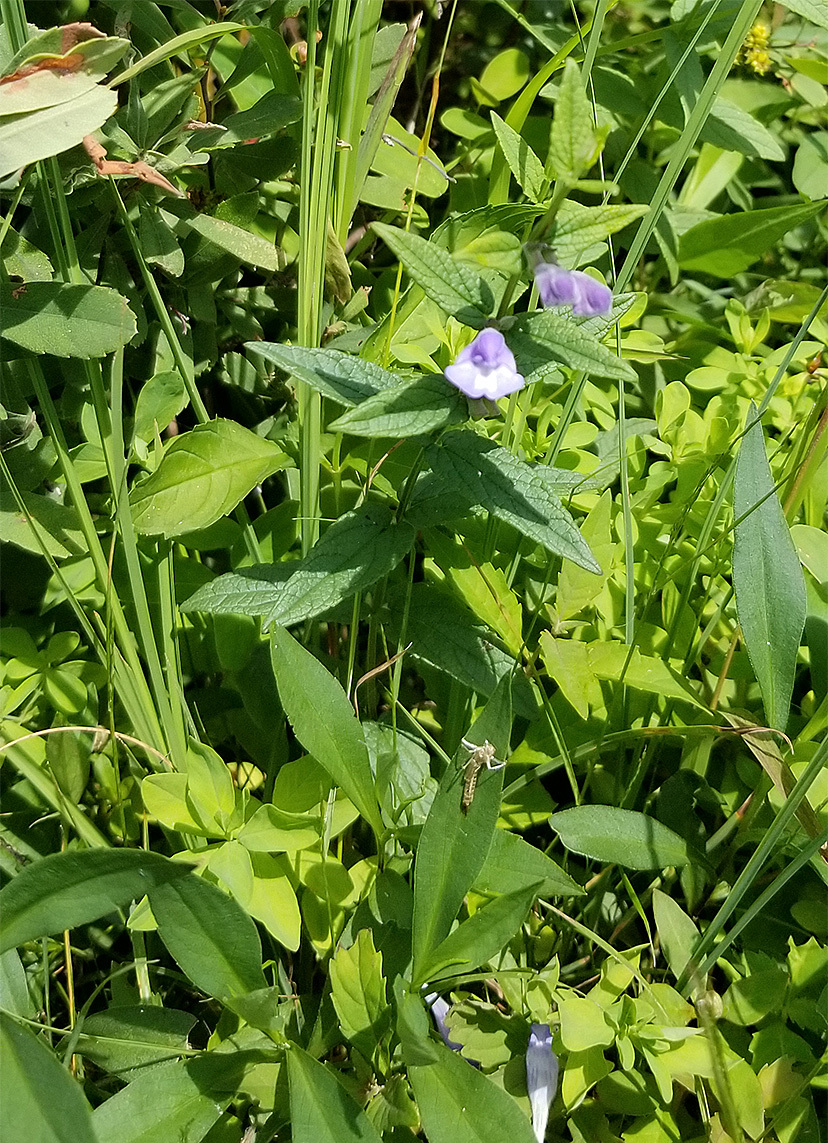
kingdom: Plantae
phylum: Tracheophyta
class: Magnoliopsida
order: Lamiales
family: Phrymaceae
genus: Mimulus
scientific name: Mimulus ringens
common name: Allegheny monkeyflower
